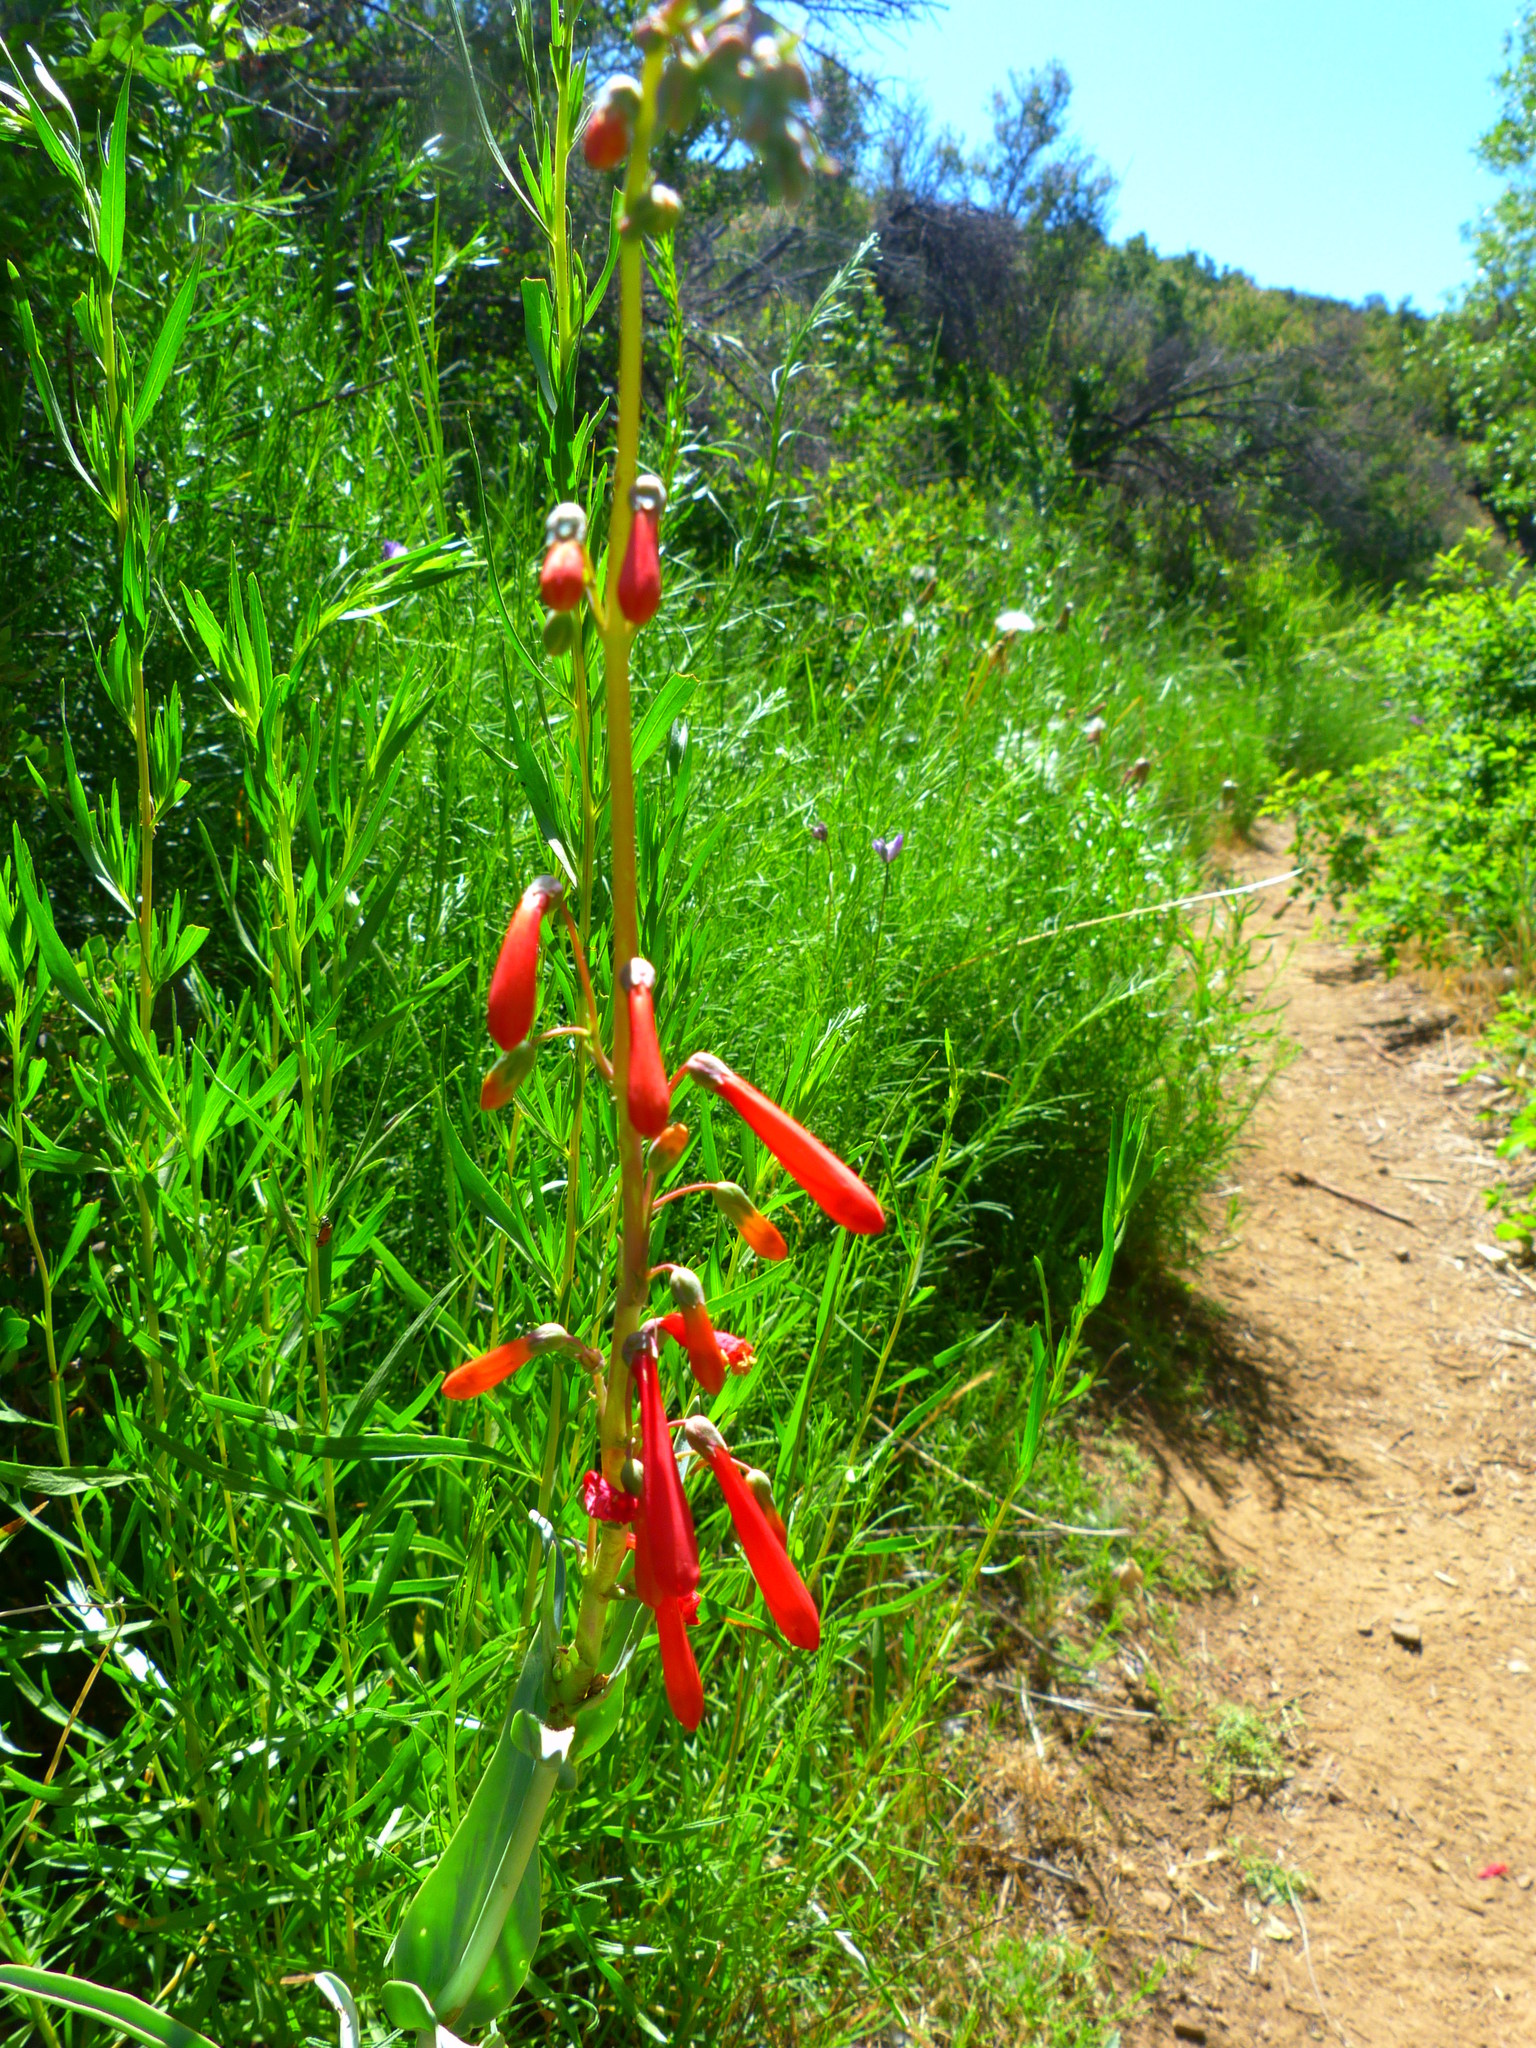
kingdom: Plantae
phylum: Tracheophyta
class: Magnoliopsida
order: Lamiales
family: Plantaginaceae
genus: Penstemon
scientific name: Penstemon centranthifolius
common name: Scarlet bugler
